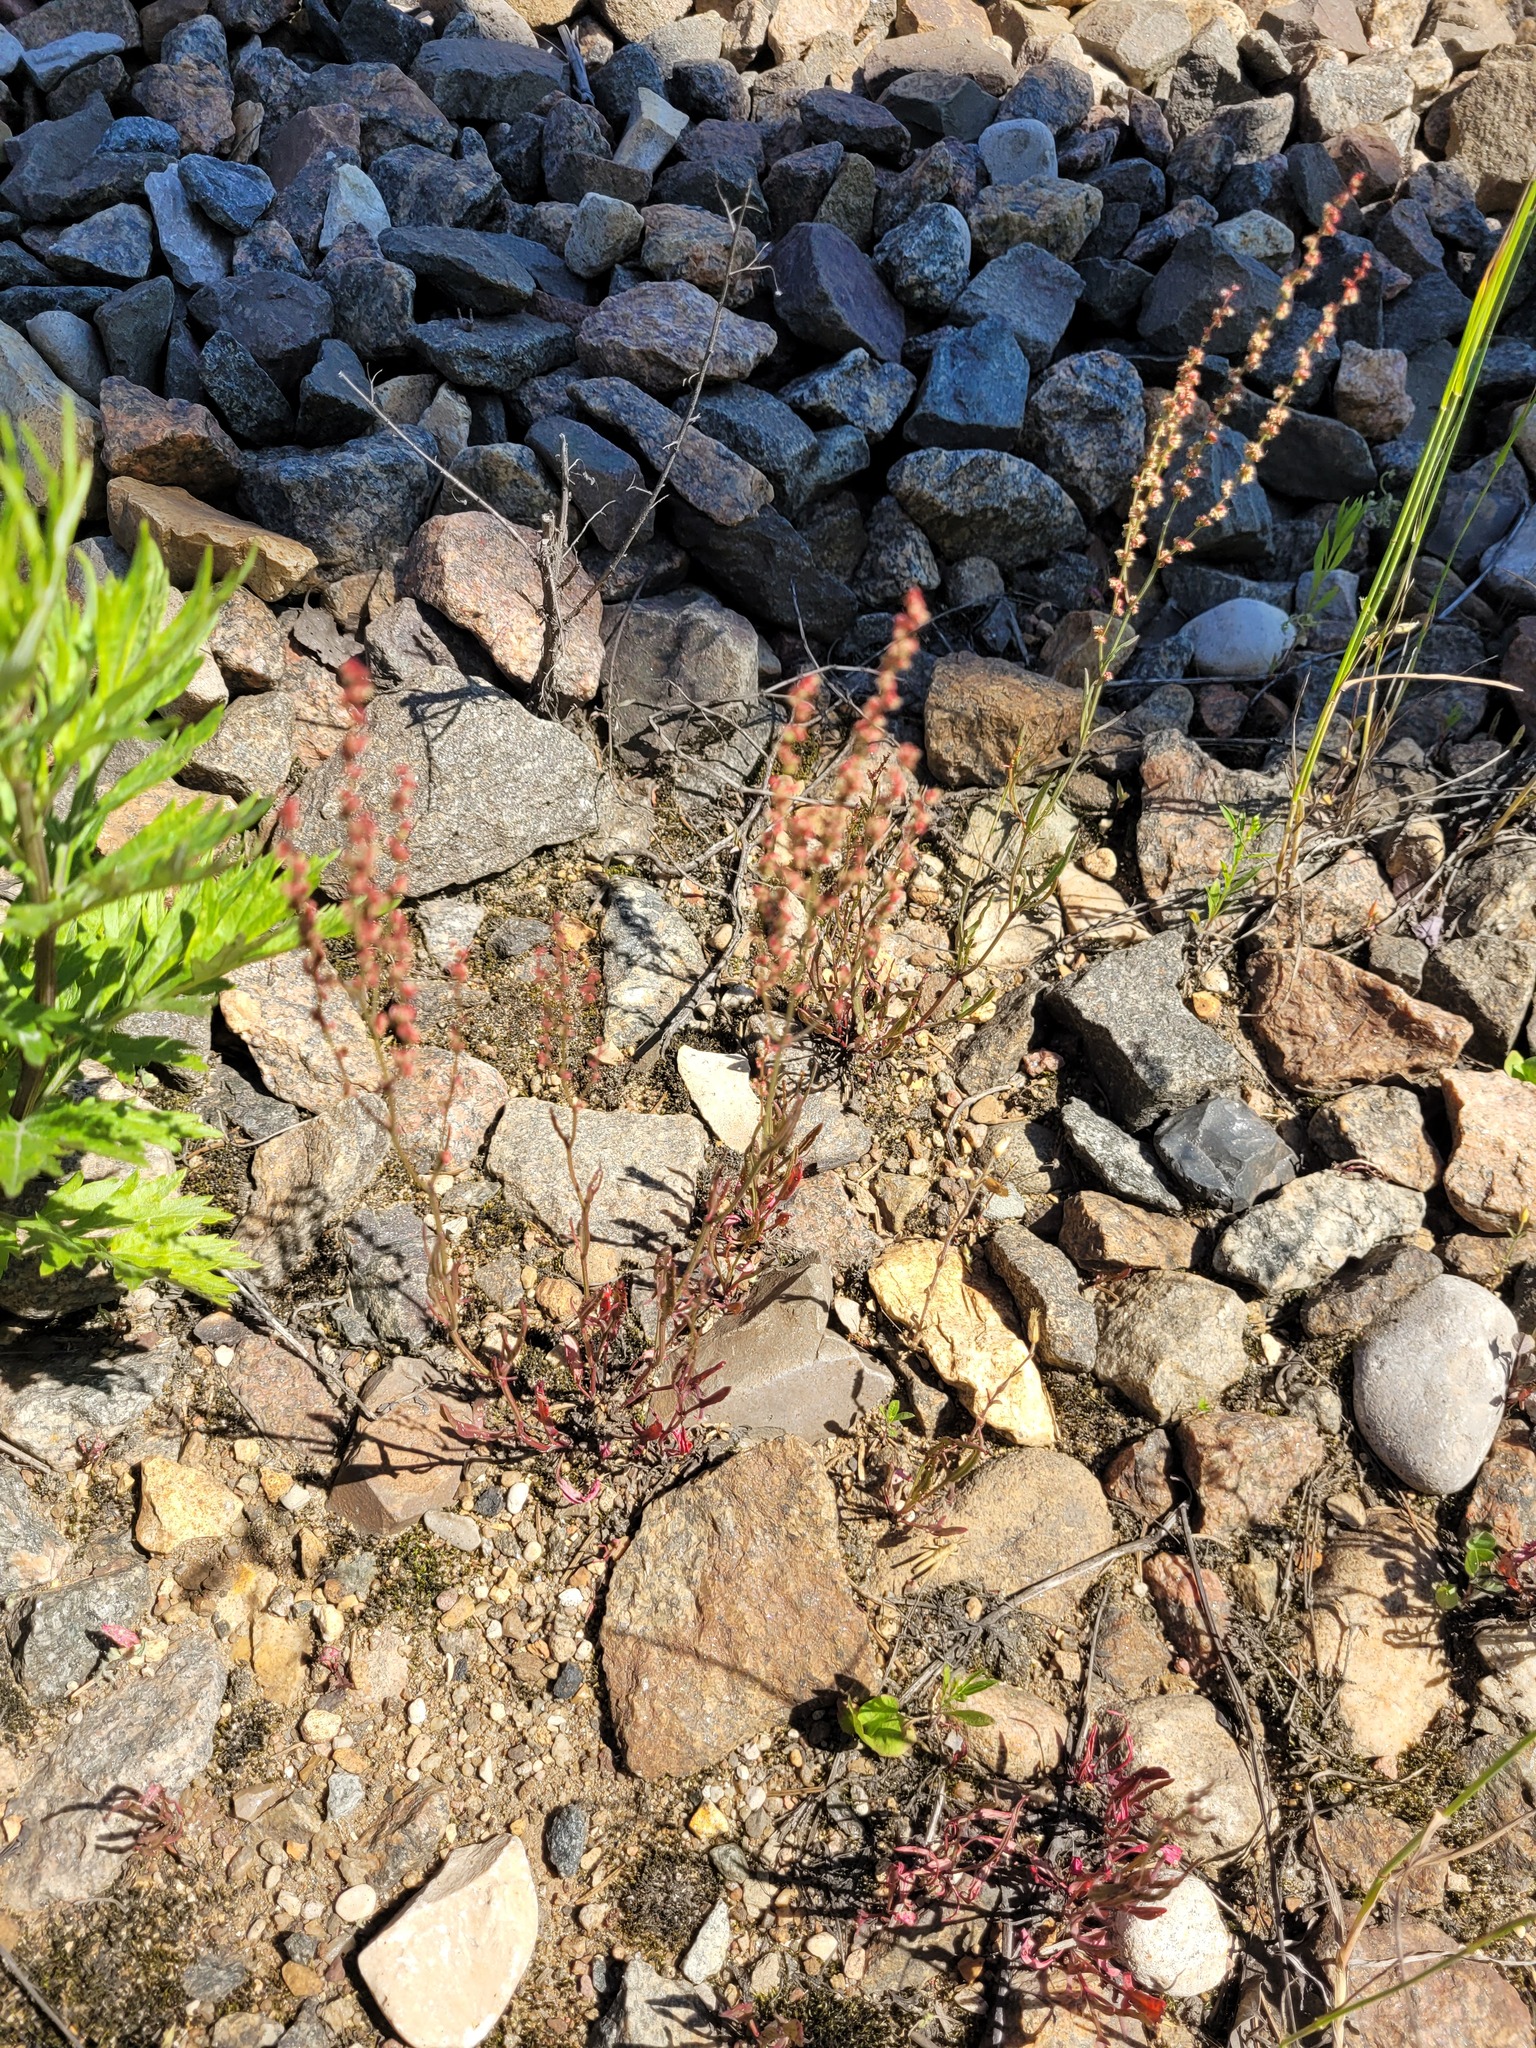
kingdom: Plantae
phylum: Tracheophyta
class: Magnoliopsida
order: Caryophyllales
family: Polygonaceae
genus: Rumex
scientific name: Rumex acetosella
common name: Common sheep sorrel
